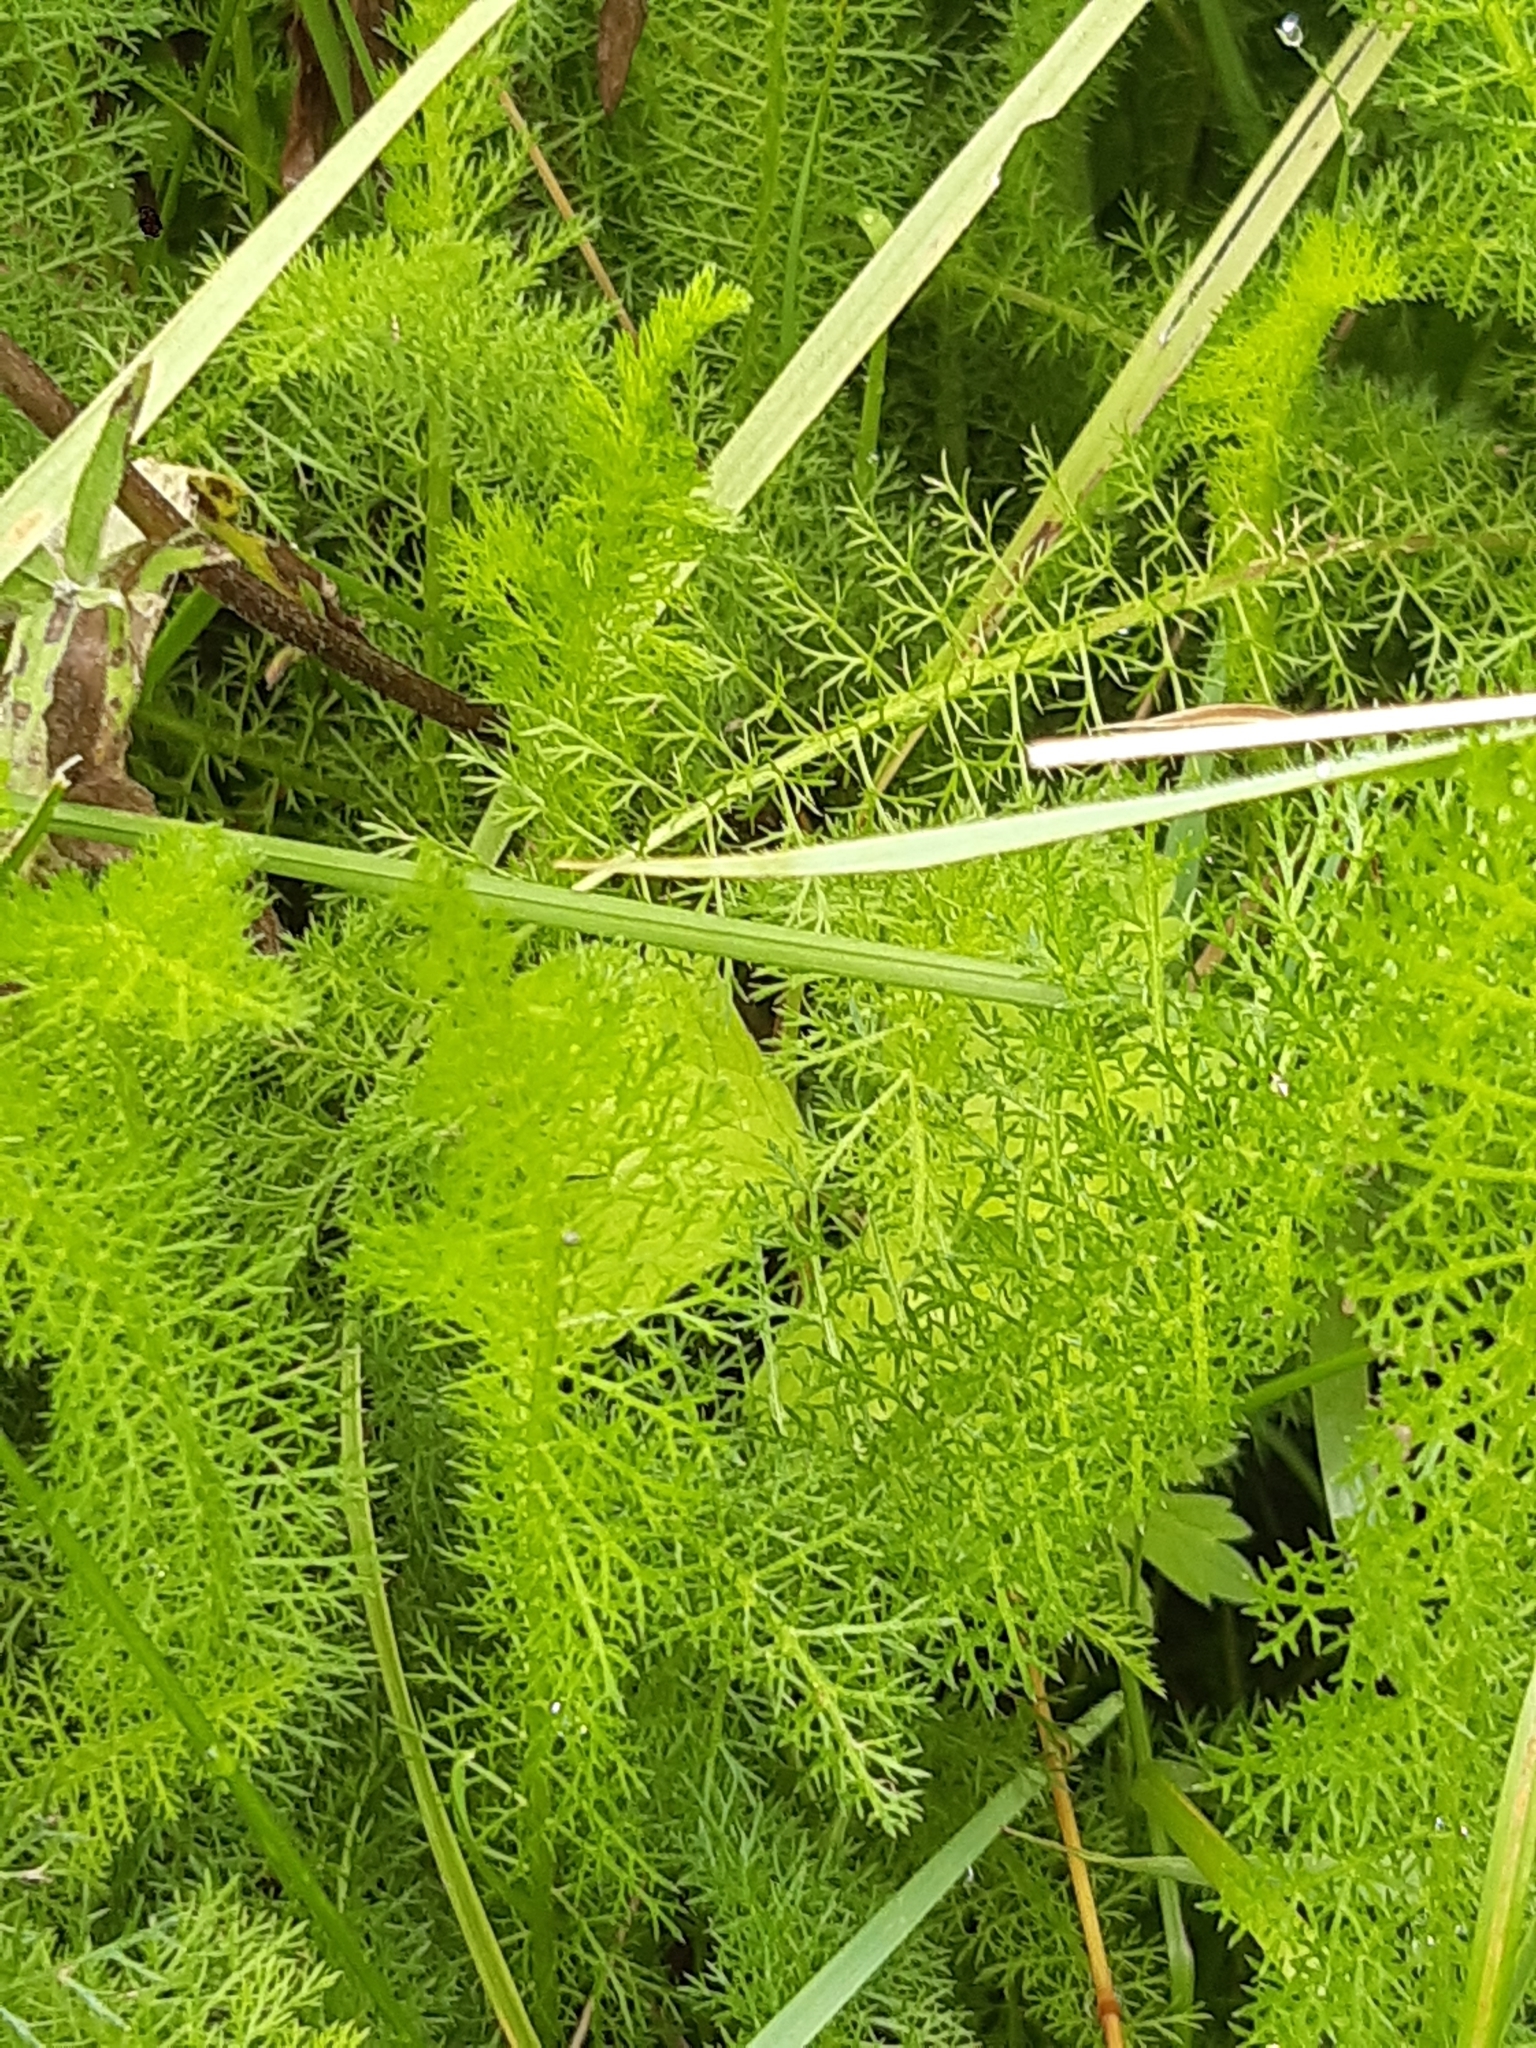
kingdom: Plantae
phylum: Tracheophyta
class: Magnoliopsida
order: Asterales
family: Asteraceae
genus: Achillea
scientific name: Achillea millefolium
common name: Yarrow
